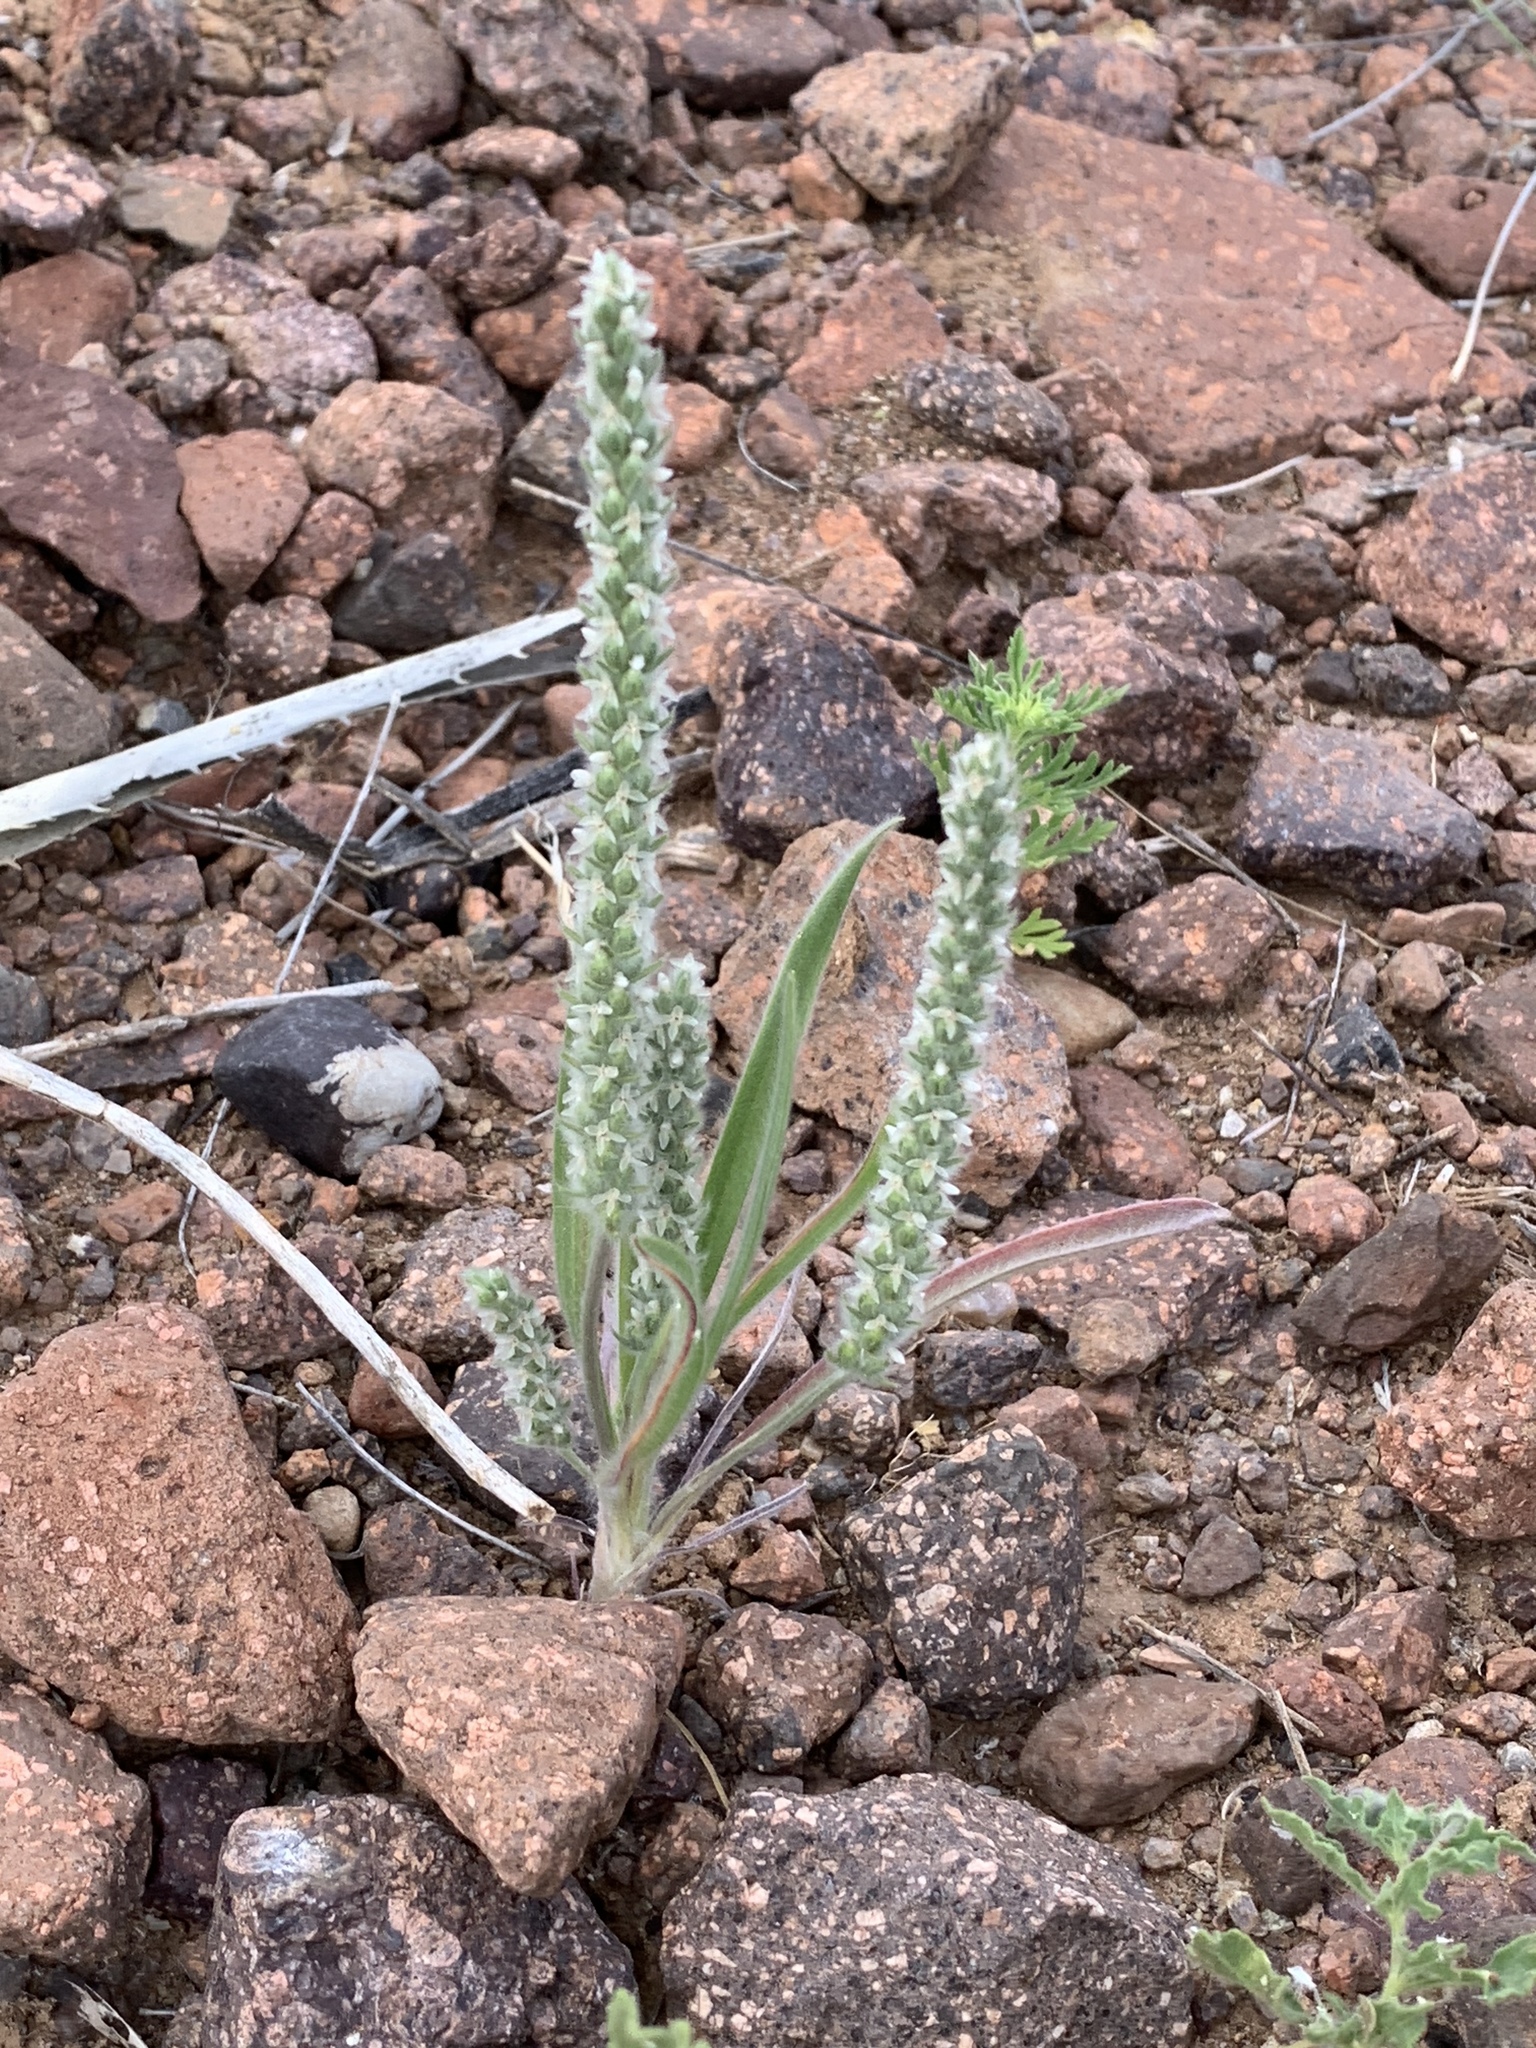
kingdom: Plantae
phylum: Tracheophyta
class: Magnoliopsida
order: Lamiales
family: Plantaginaceae
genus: Plantago
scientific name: Plantago patagonica
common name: Patagonia indian-wheat
